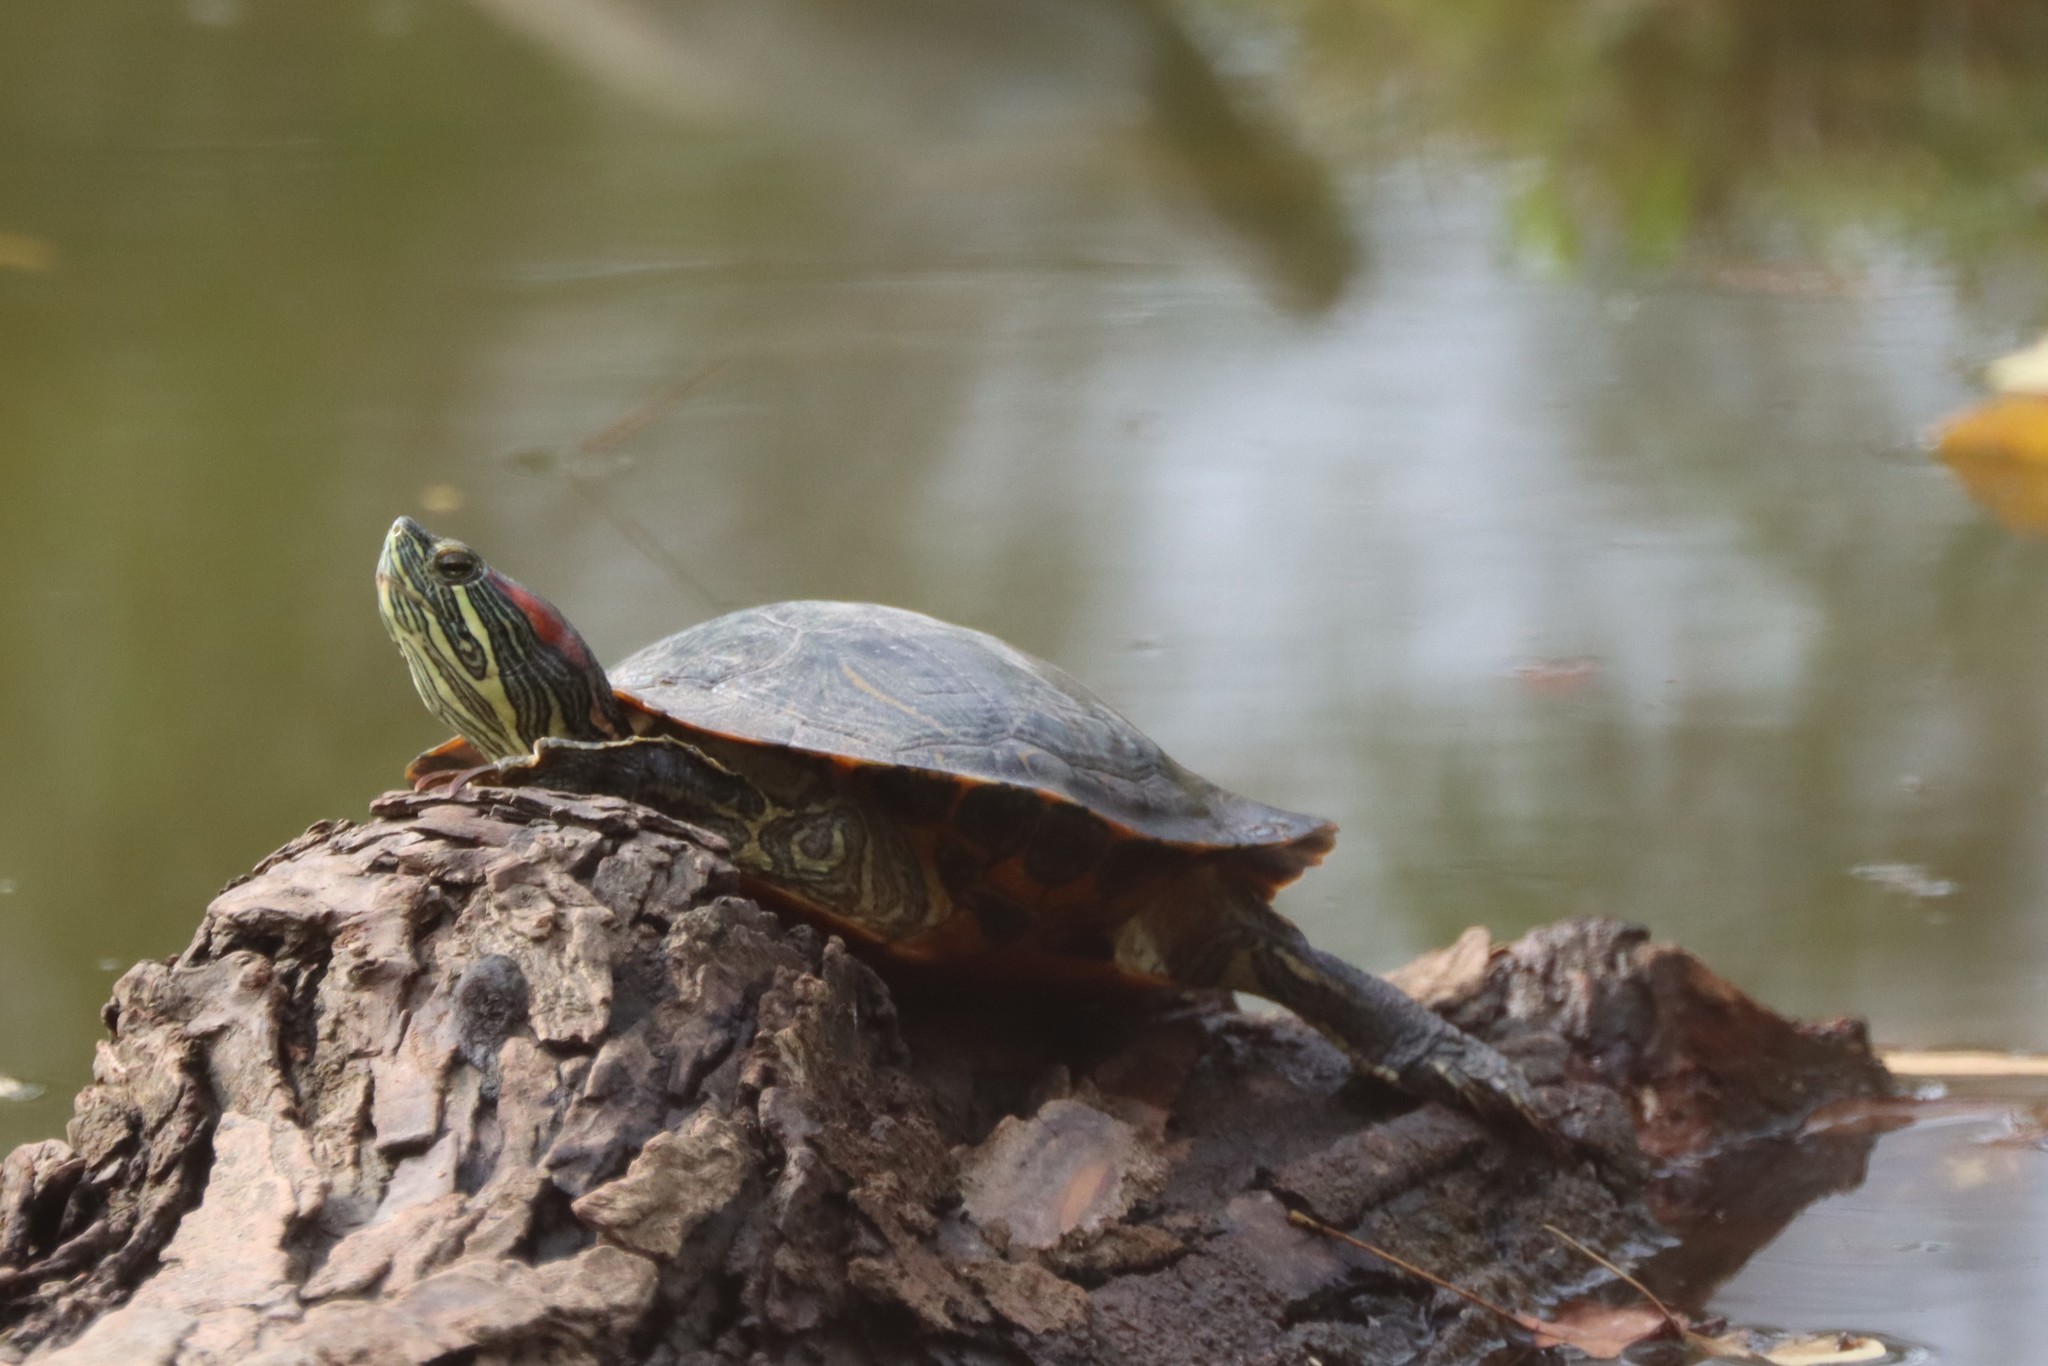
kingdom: Animalia
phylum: Chordata
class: Testudines
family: Emydidae
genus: Trachemys
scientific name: Trachemys scripta
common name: Slider
